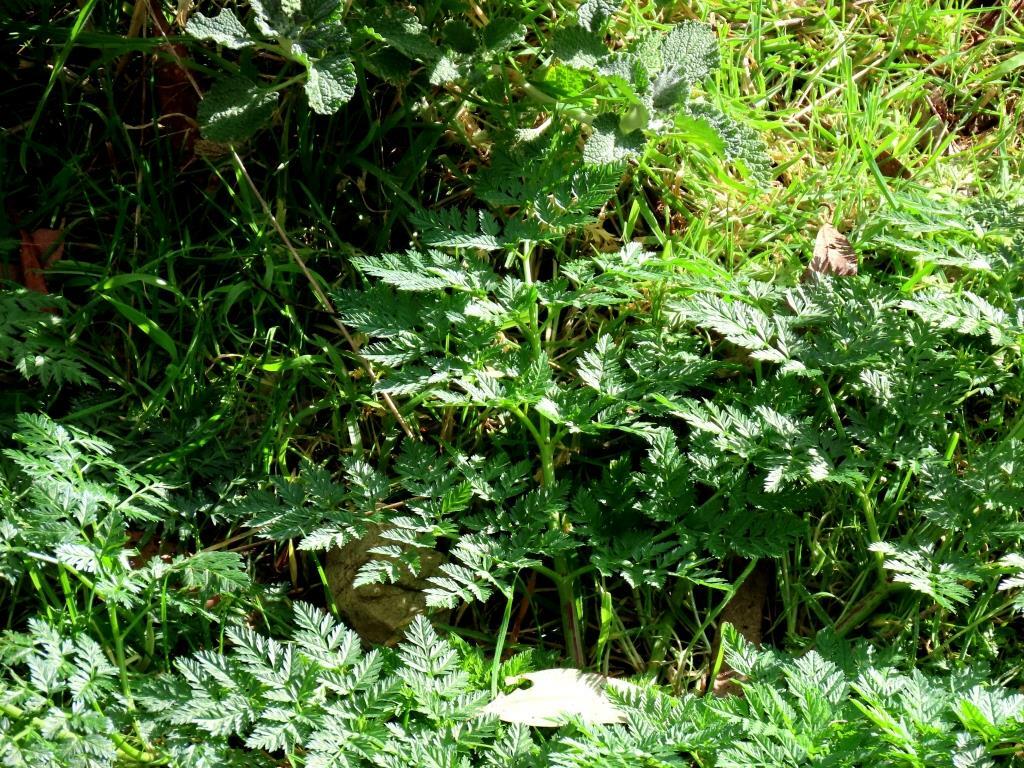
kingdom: Plantae
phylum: Tracheophyta
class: Magnoliopsida
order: Apiales
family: Apiaceae
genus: Conium
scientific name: Conium maculatum
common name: Hemlock
